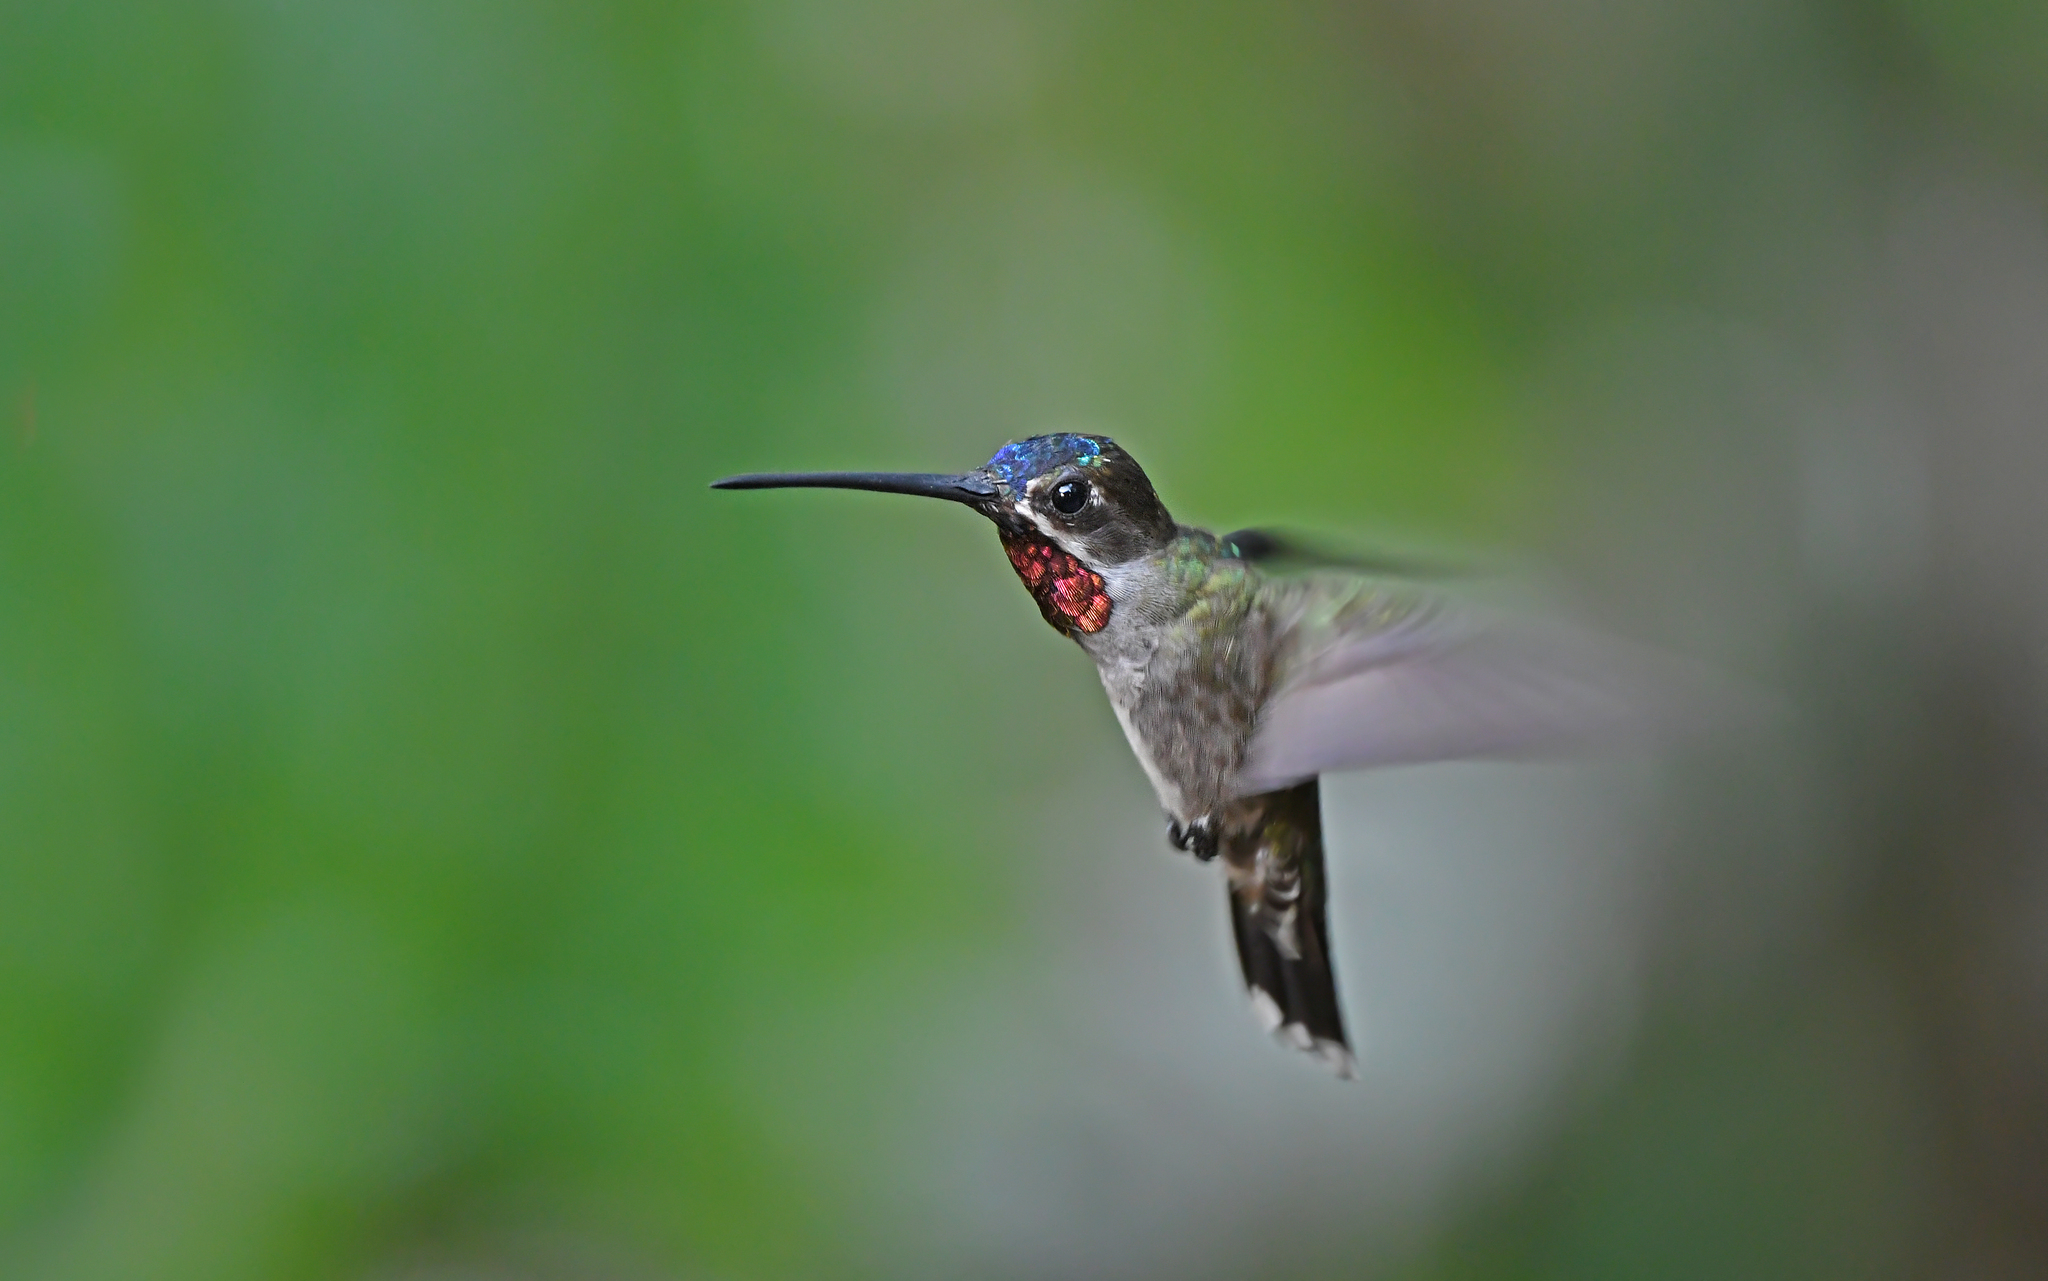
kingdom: Animalia
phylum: Chordata
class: Aves
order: Apodiformes
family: Trochilidae
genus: Heliomaster
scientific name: Heliomaster longirostris
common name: Long-billed starthroat
